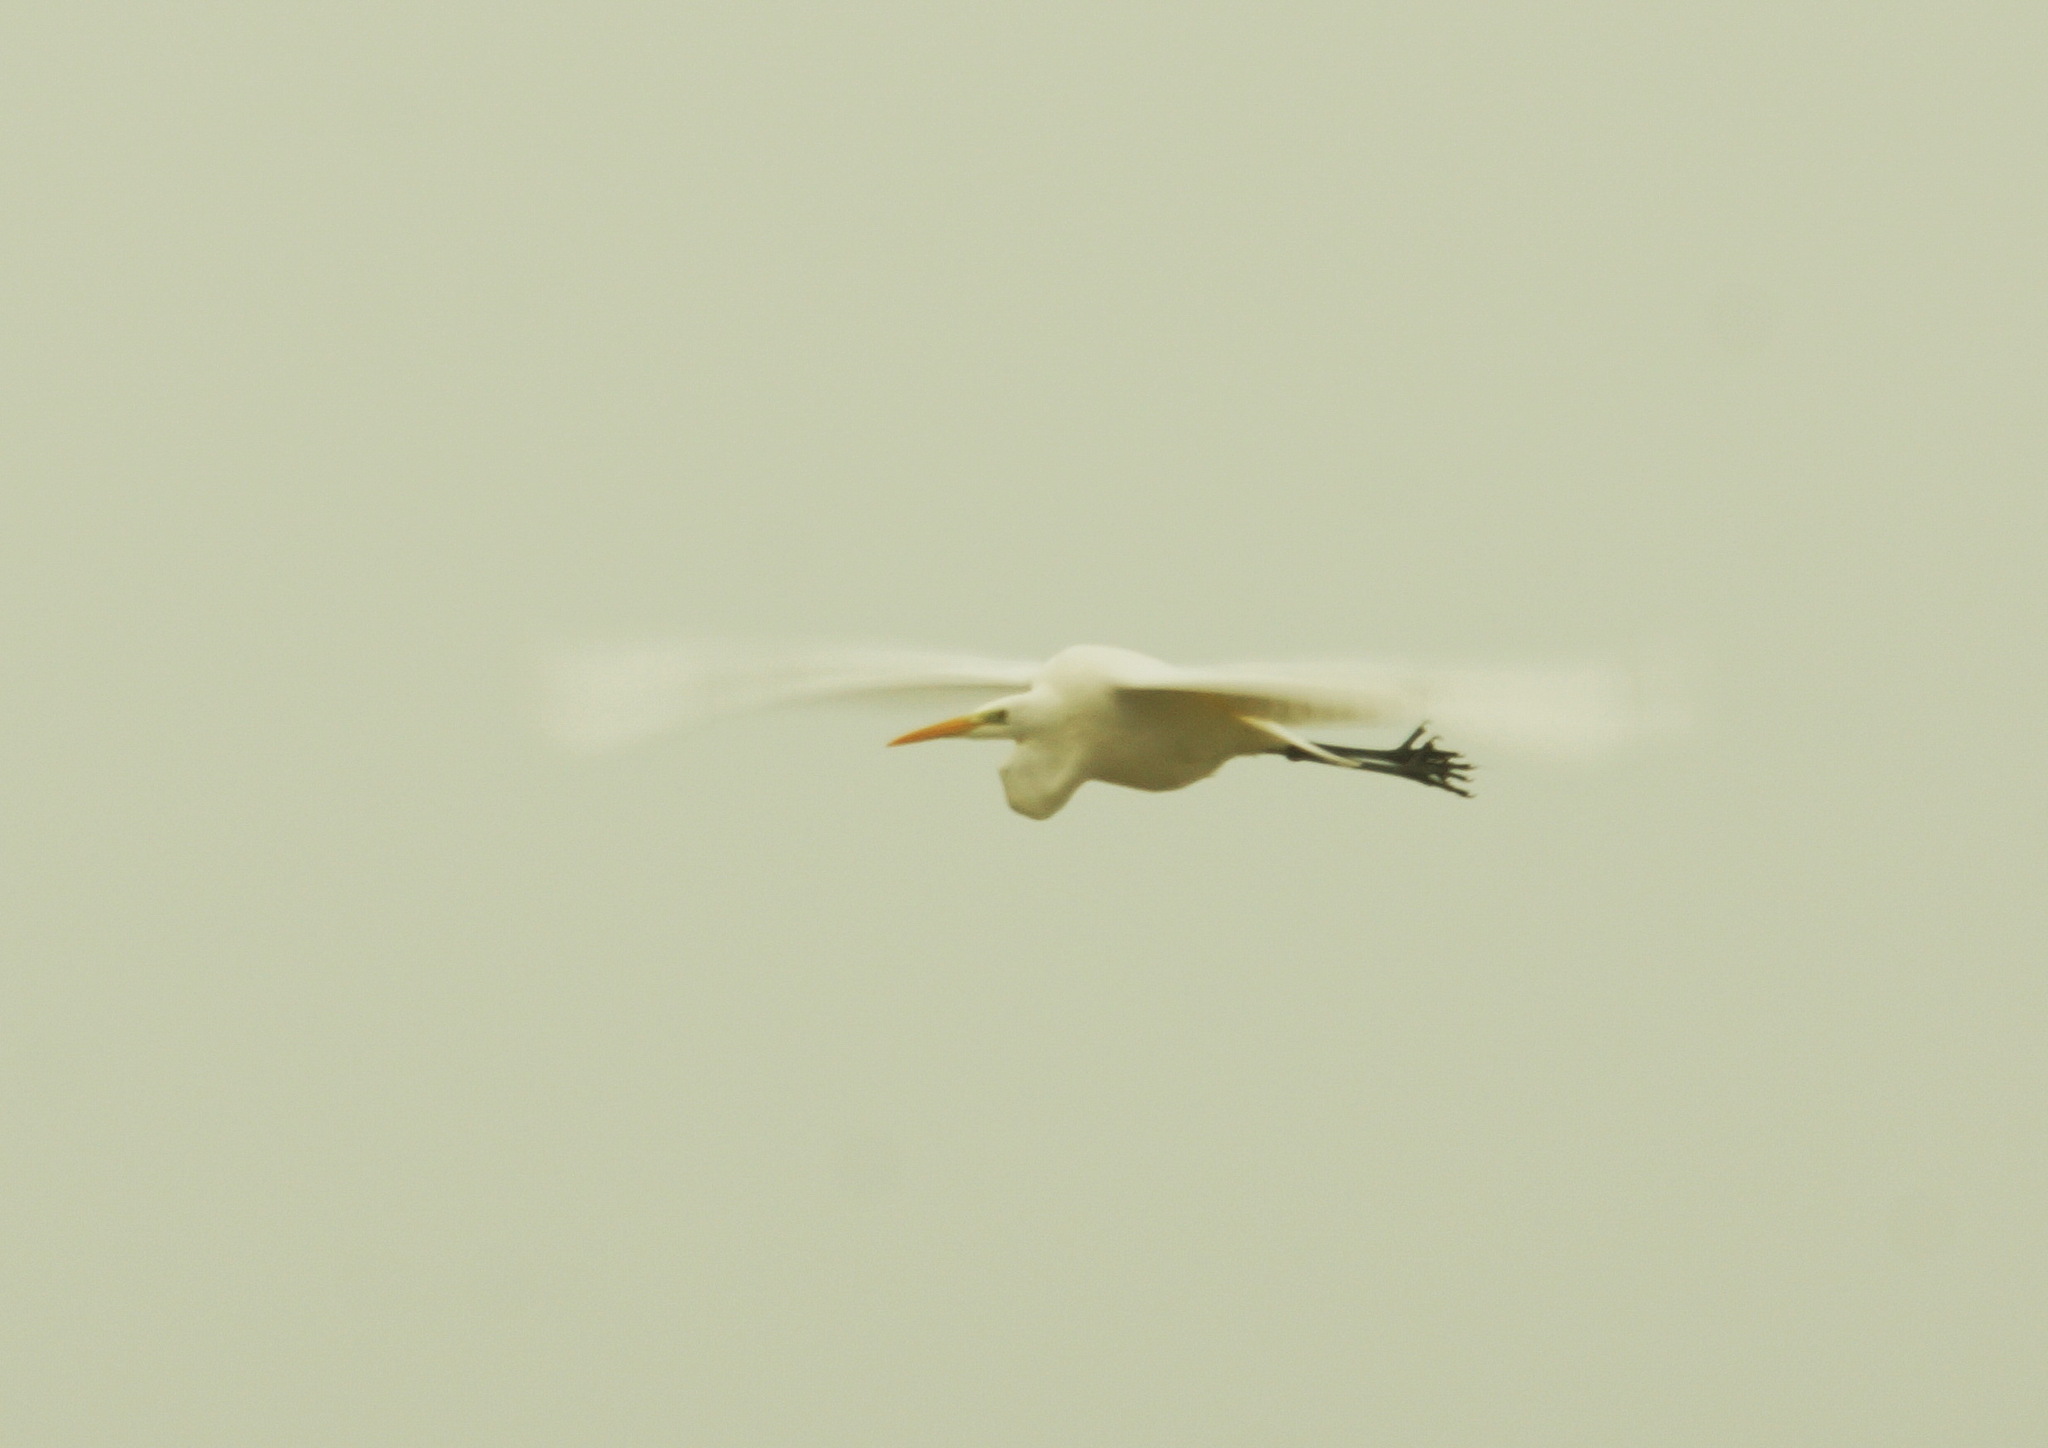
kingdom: Animalia
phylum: Chordata
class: Aves
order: Pelecaniformes
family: Ardeidae
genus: Ardea
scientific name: Ardea alba
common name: Great egret
